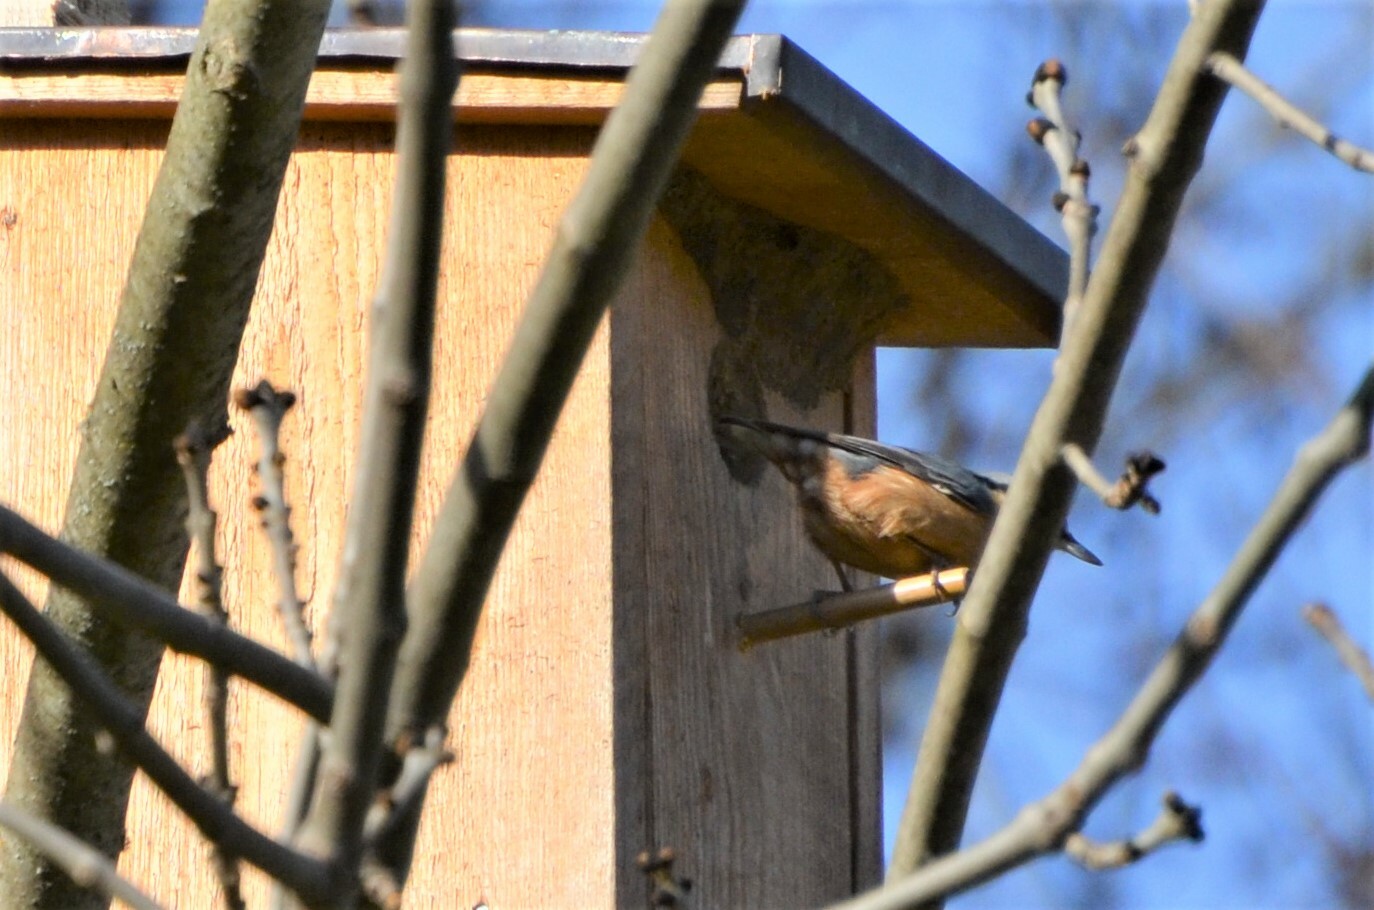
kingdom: Animalia
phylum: Chordata
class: Aves
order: Passeriformes
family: Sittidae
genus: Sitta
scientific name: Sitta europaea
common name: Eurasian nuthatch
